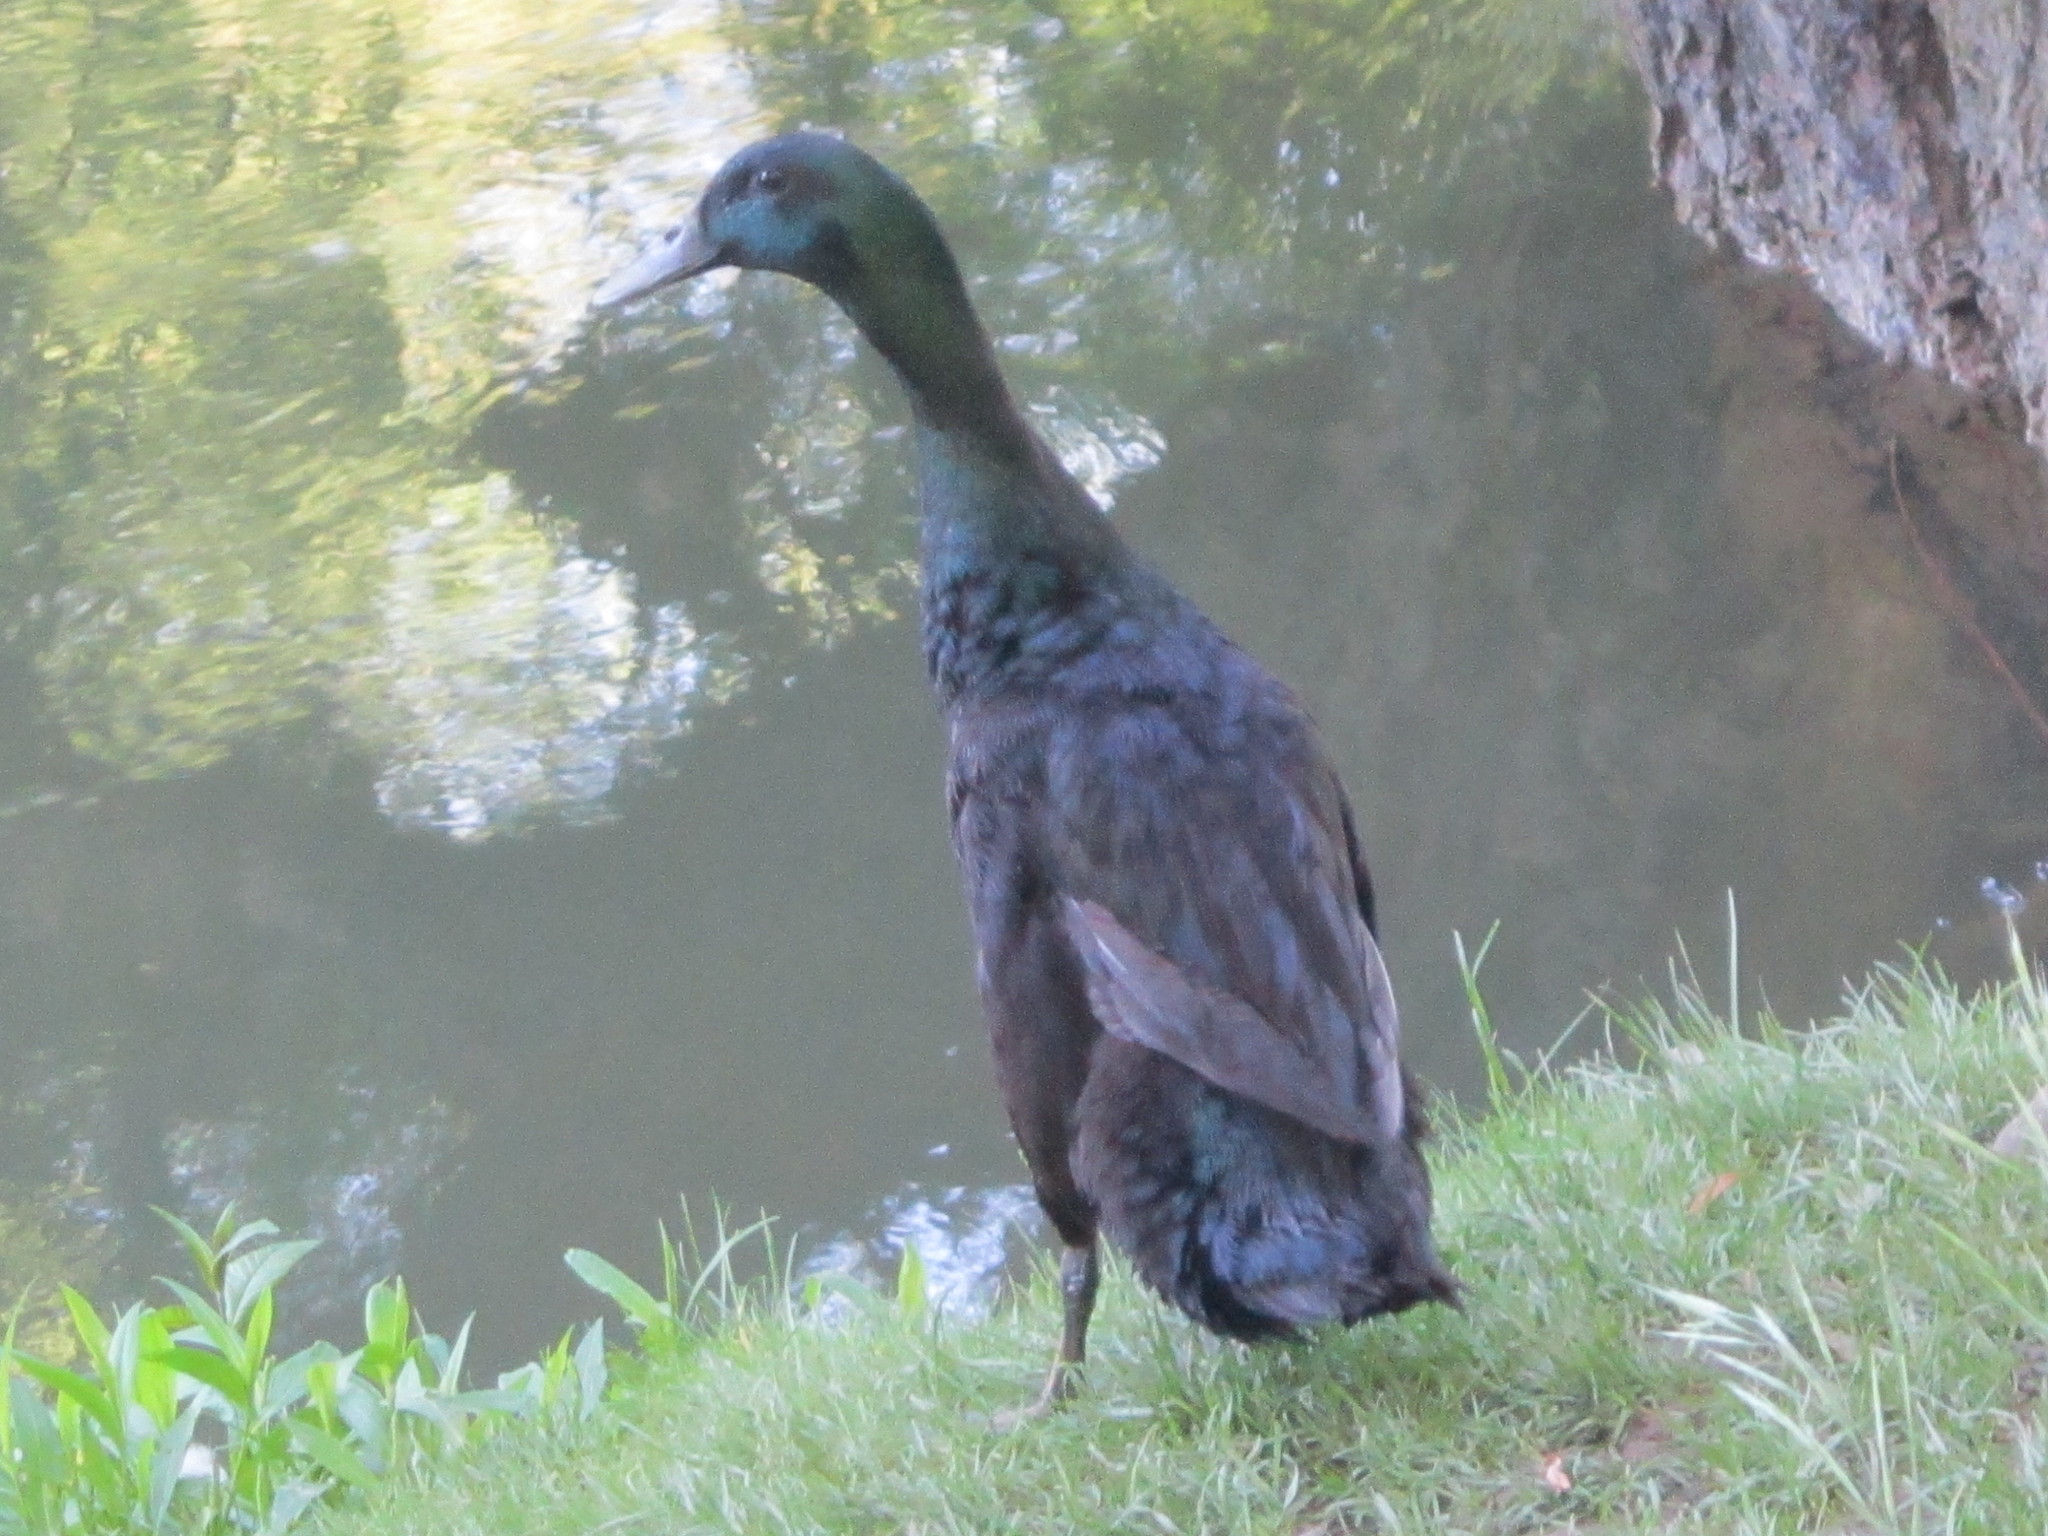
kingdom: Animalia
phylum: Chordata
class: Aves
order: Anseriformes
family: Anatidae
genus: Anas
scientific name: Anas platyrhynchos
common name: Mallard
